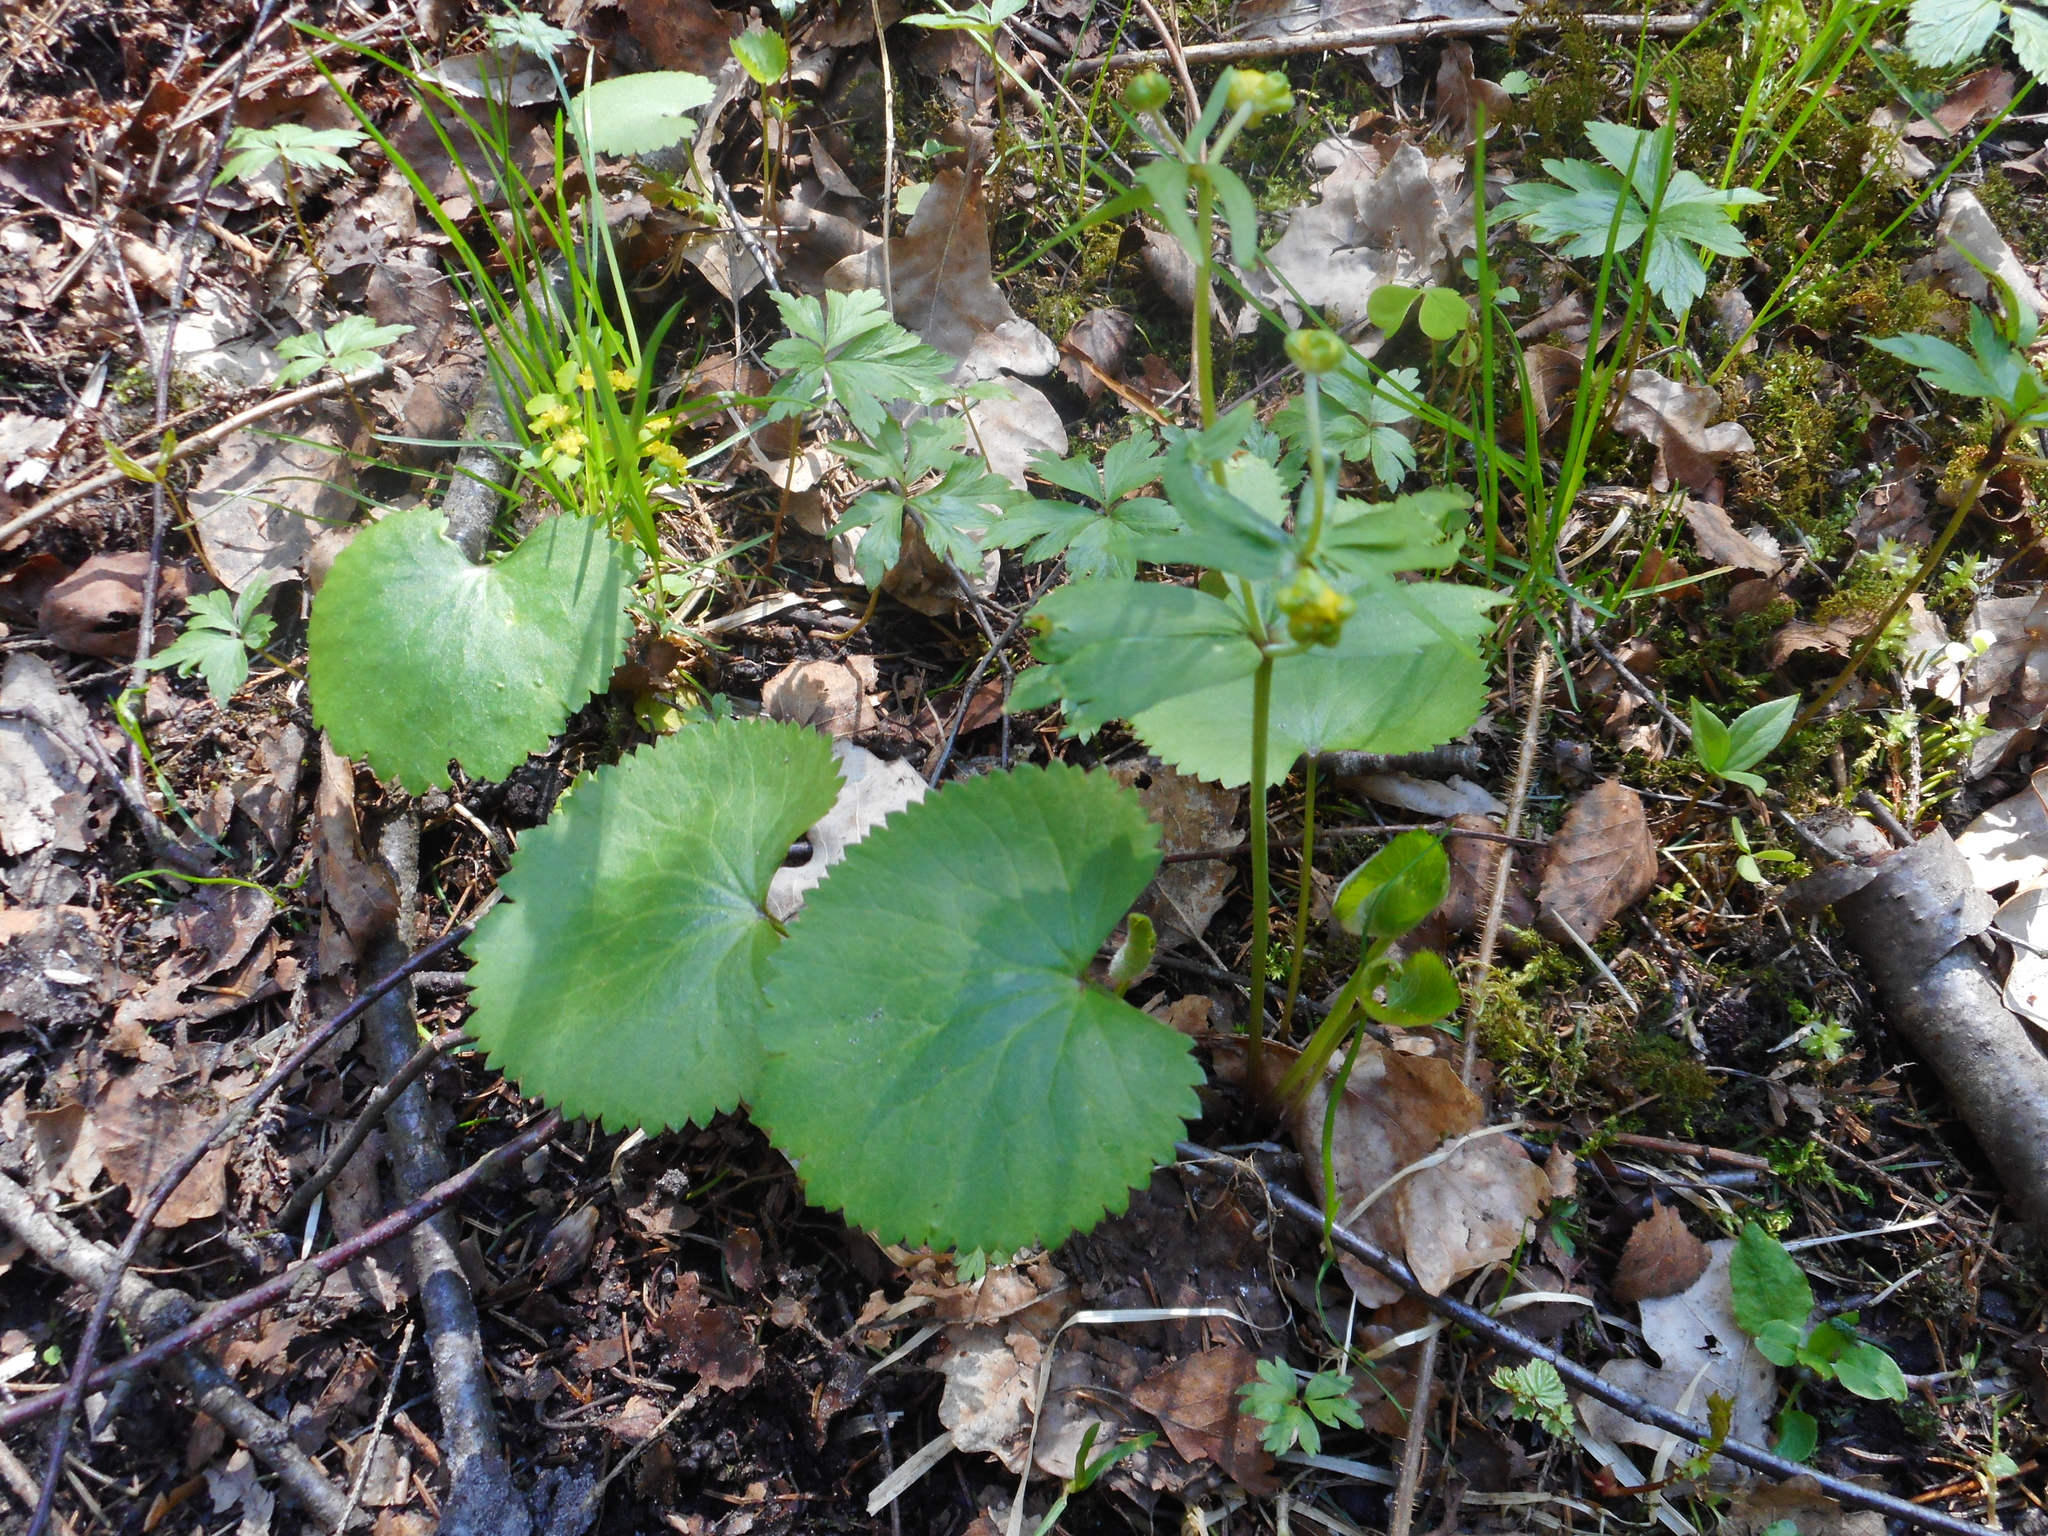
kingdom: Plantae
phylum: Tracheophyta
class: Magnoliopsida
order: Ranunculales
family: Ranunculaceae
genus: Ranunculus
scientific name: Ranunculus cassubicus
